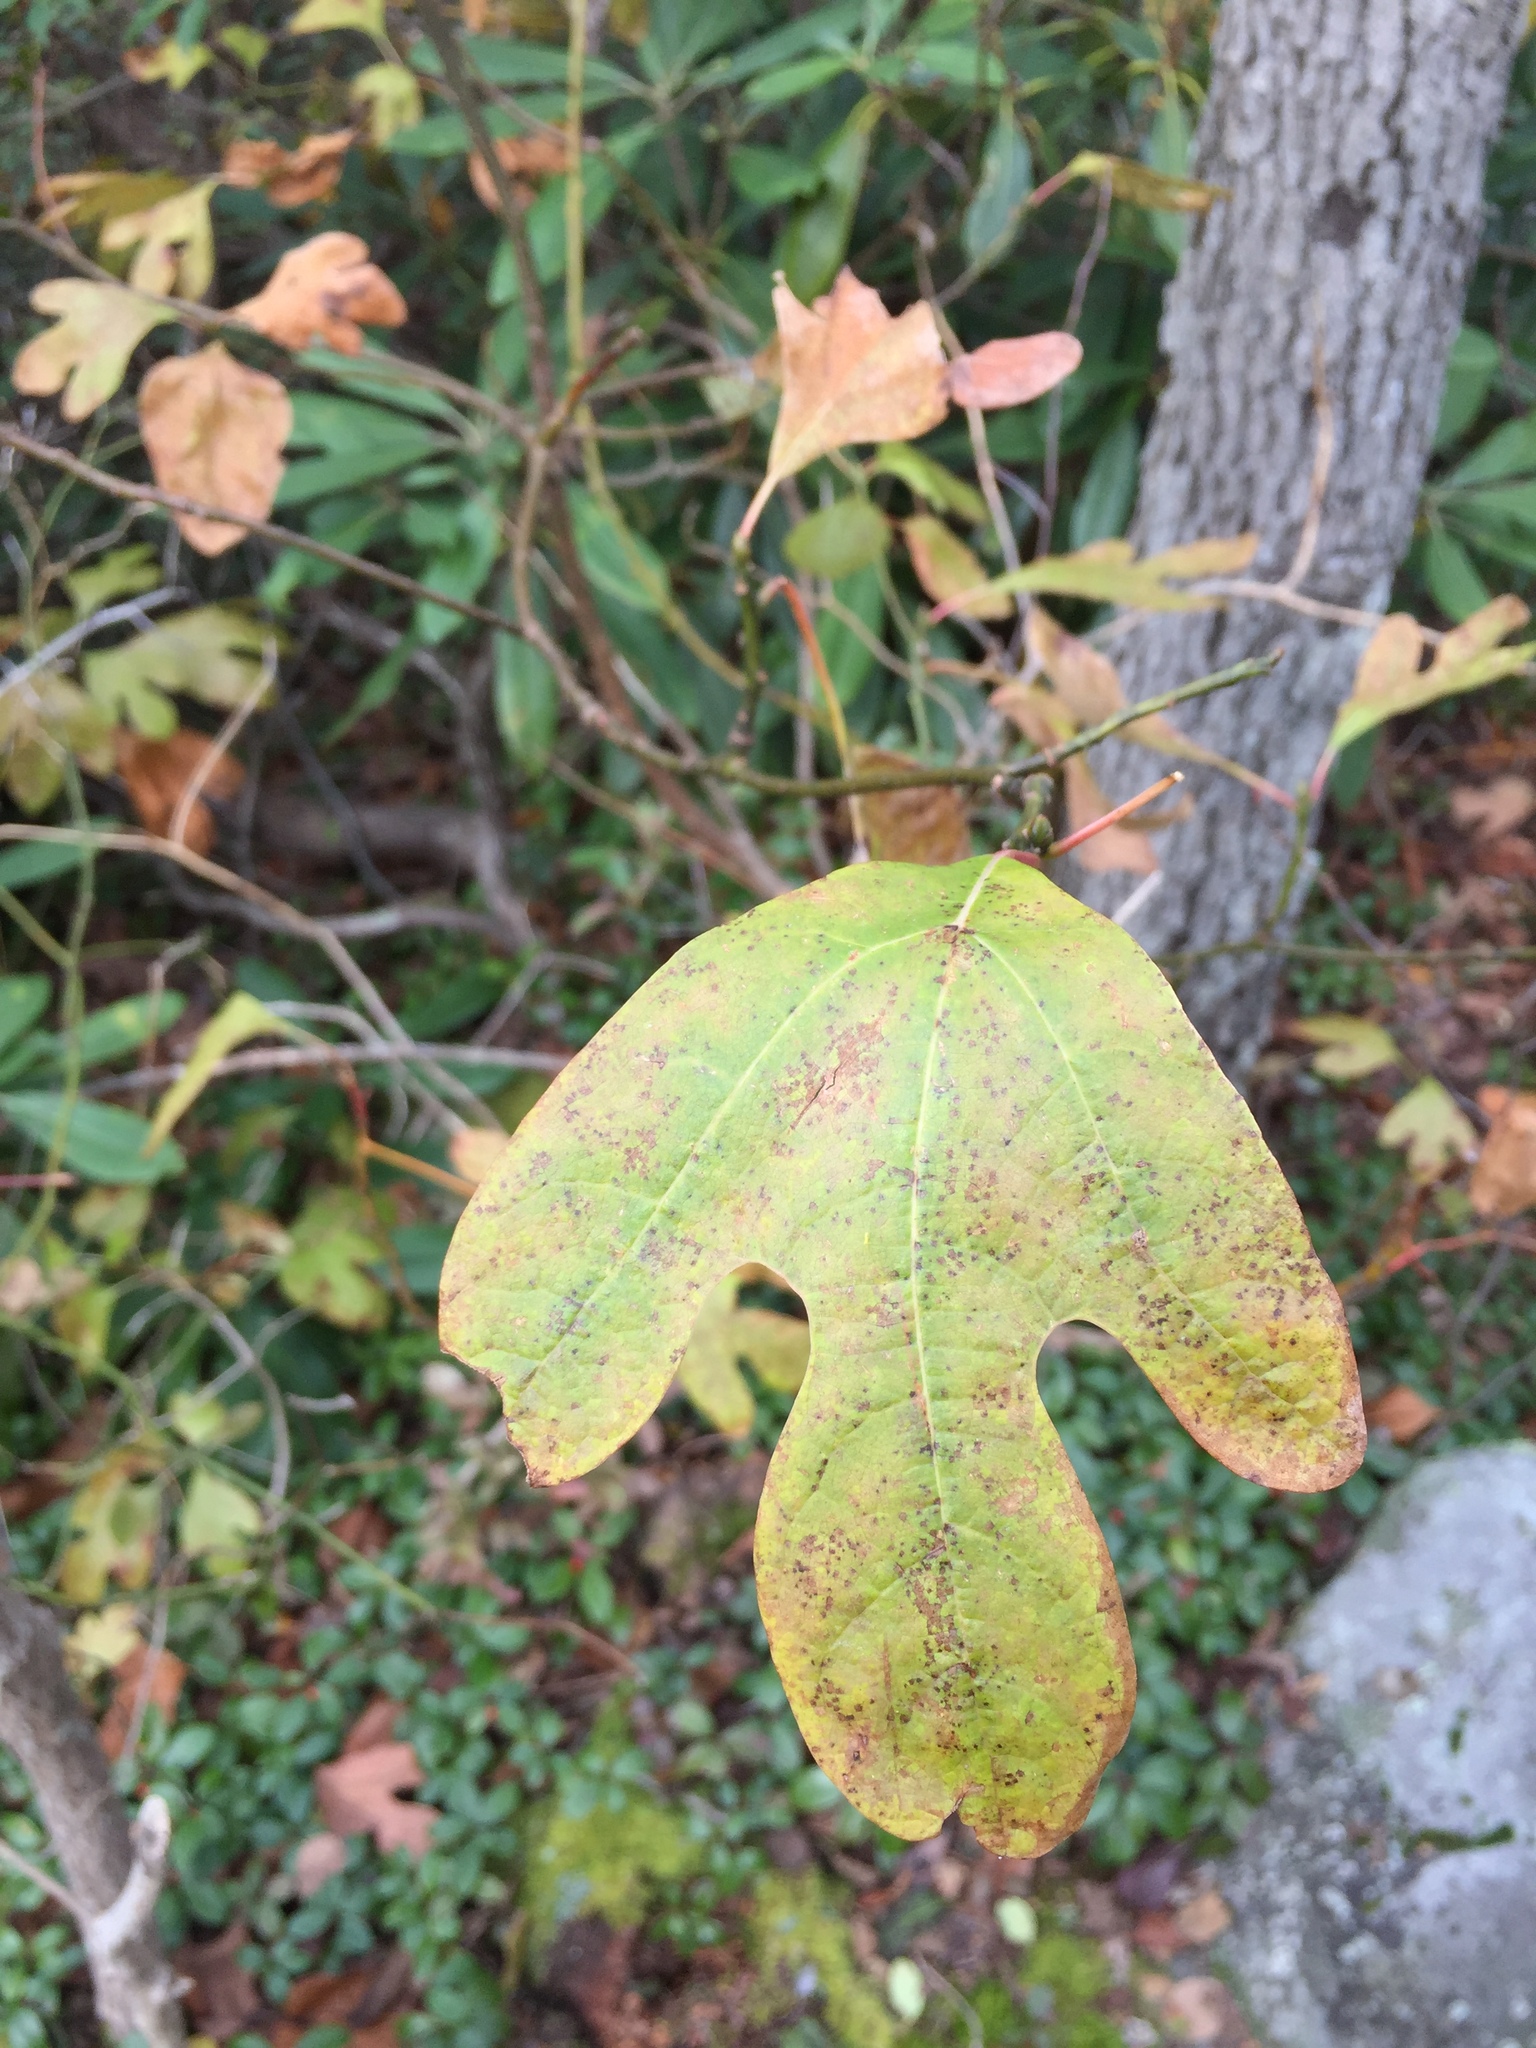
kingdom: Plantae
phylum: Tracheophyta
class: Magnoliopsida
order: Laurales
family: Lauraceae
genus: Sassafras
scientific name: Sassafras albidum
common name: Sassafras
